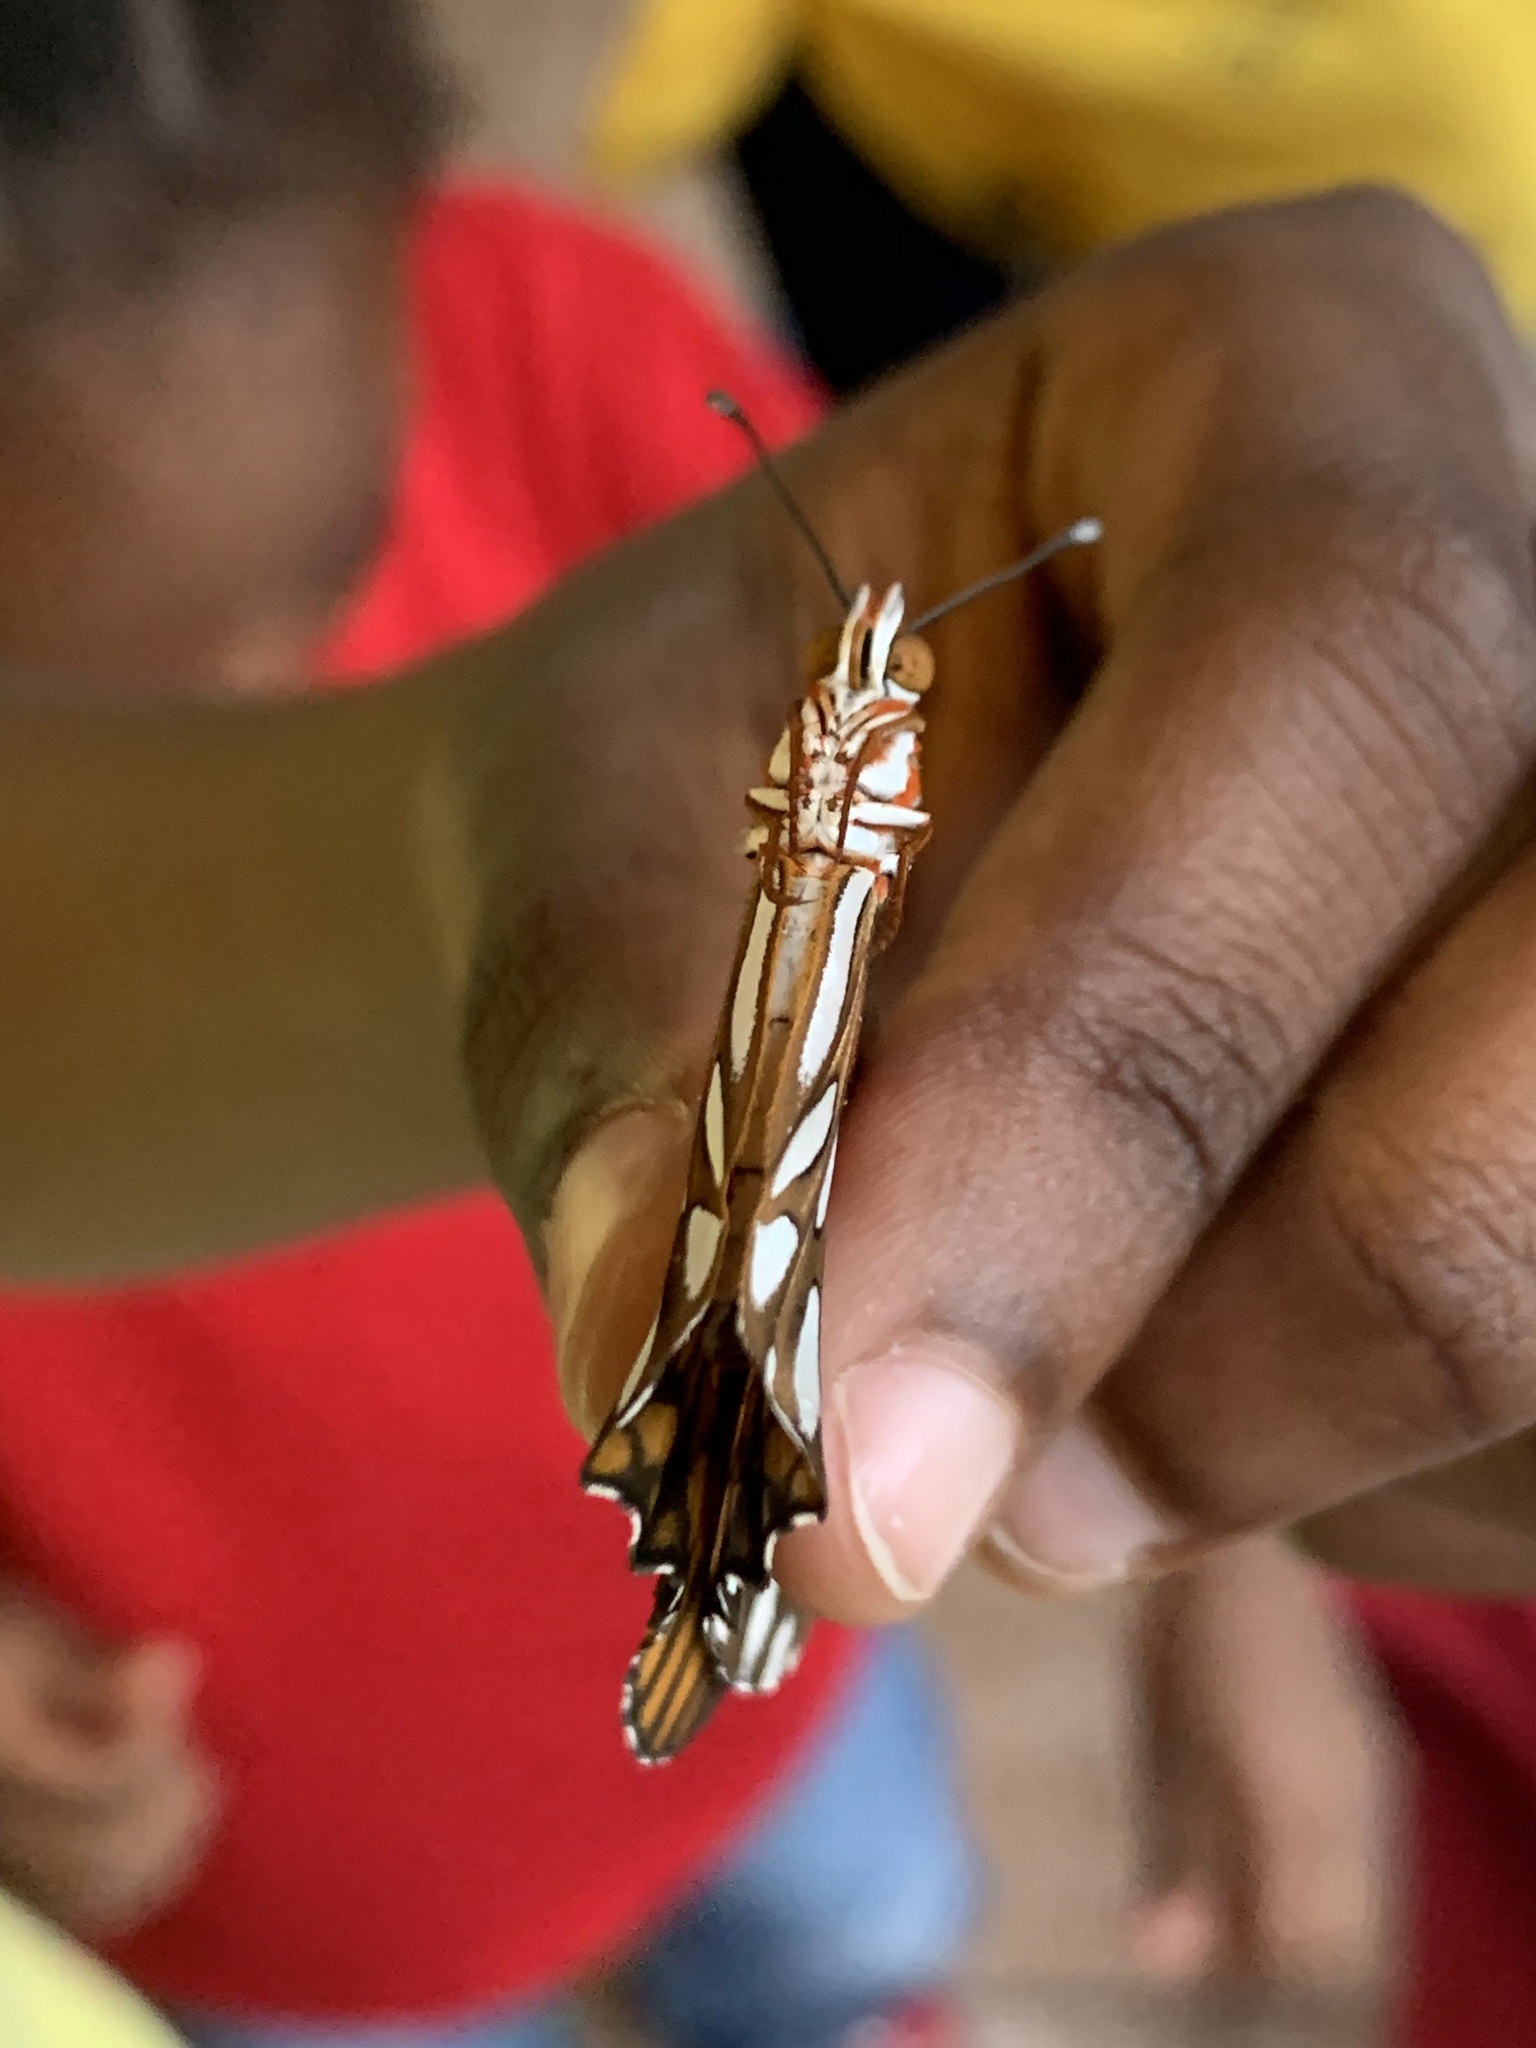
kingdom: Animalia
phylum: Arthropoda
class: Insecta
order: Lepidoptera
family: Nymphalidae
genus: Dione
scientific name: Dione vanillae
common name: Gulf fritillary
